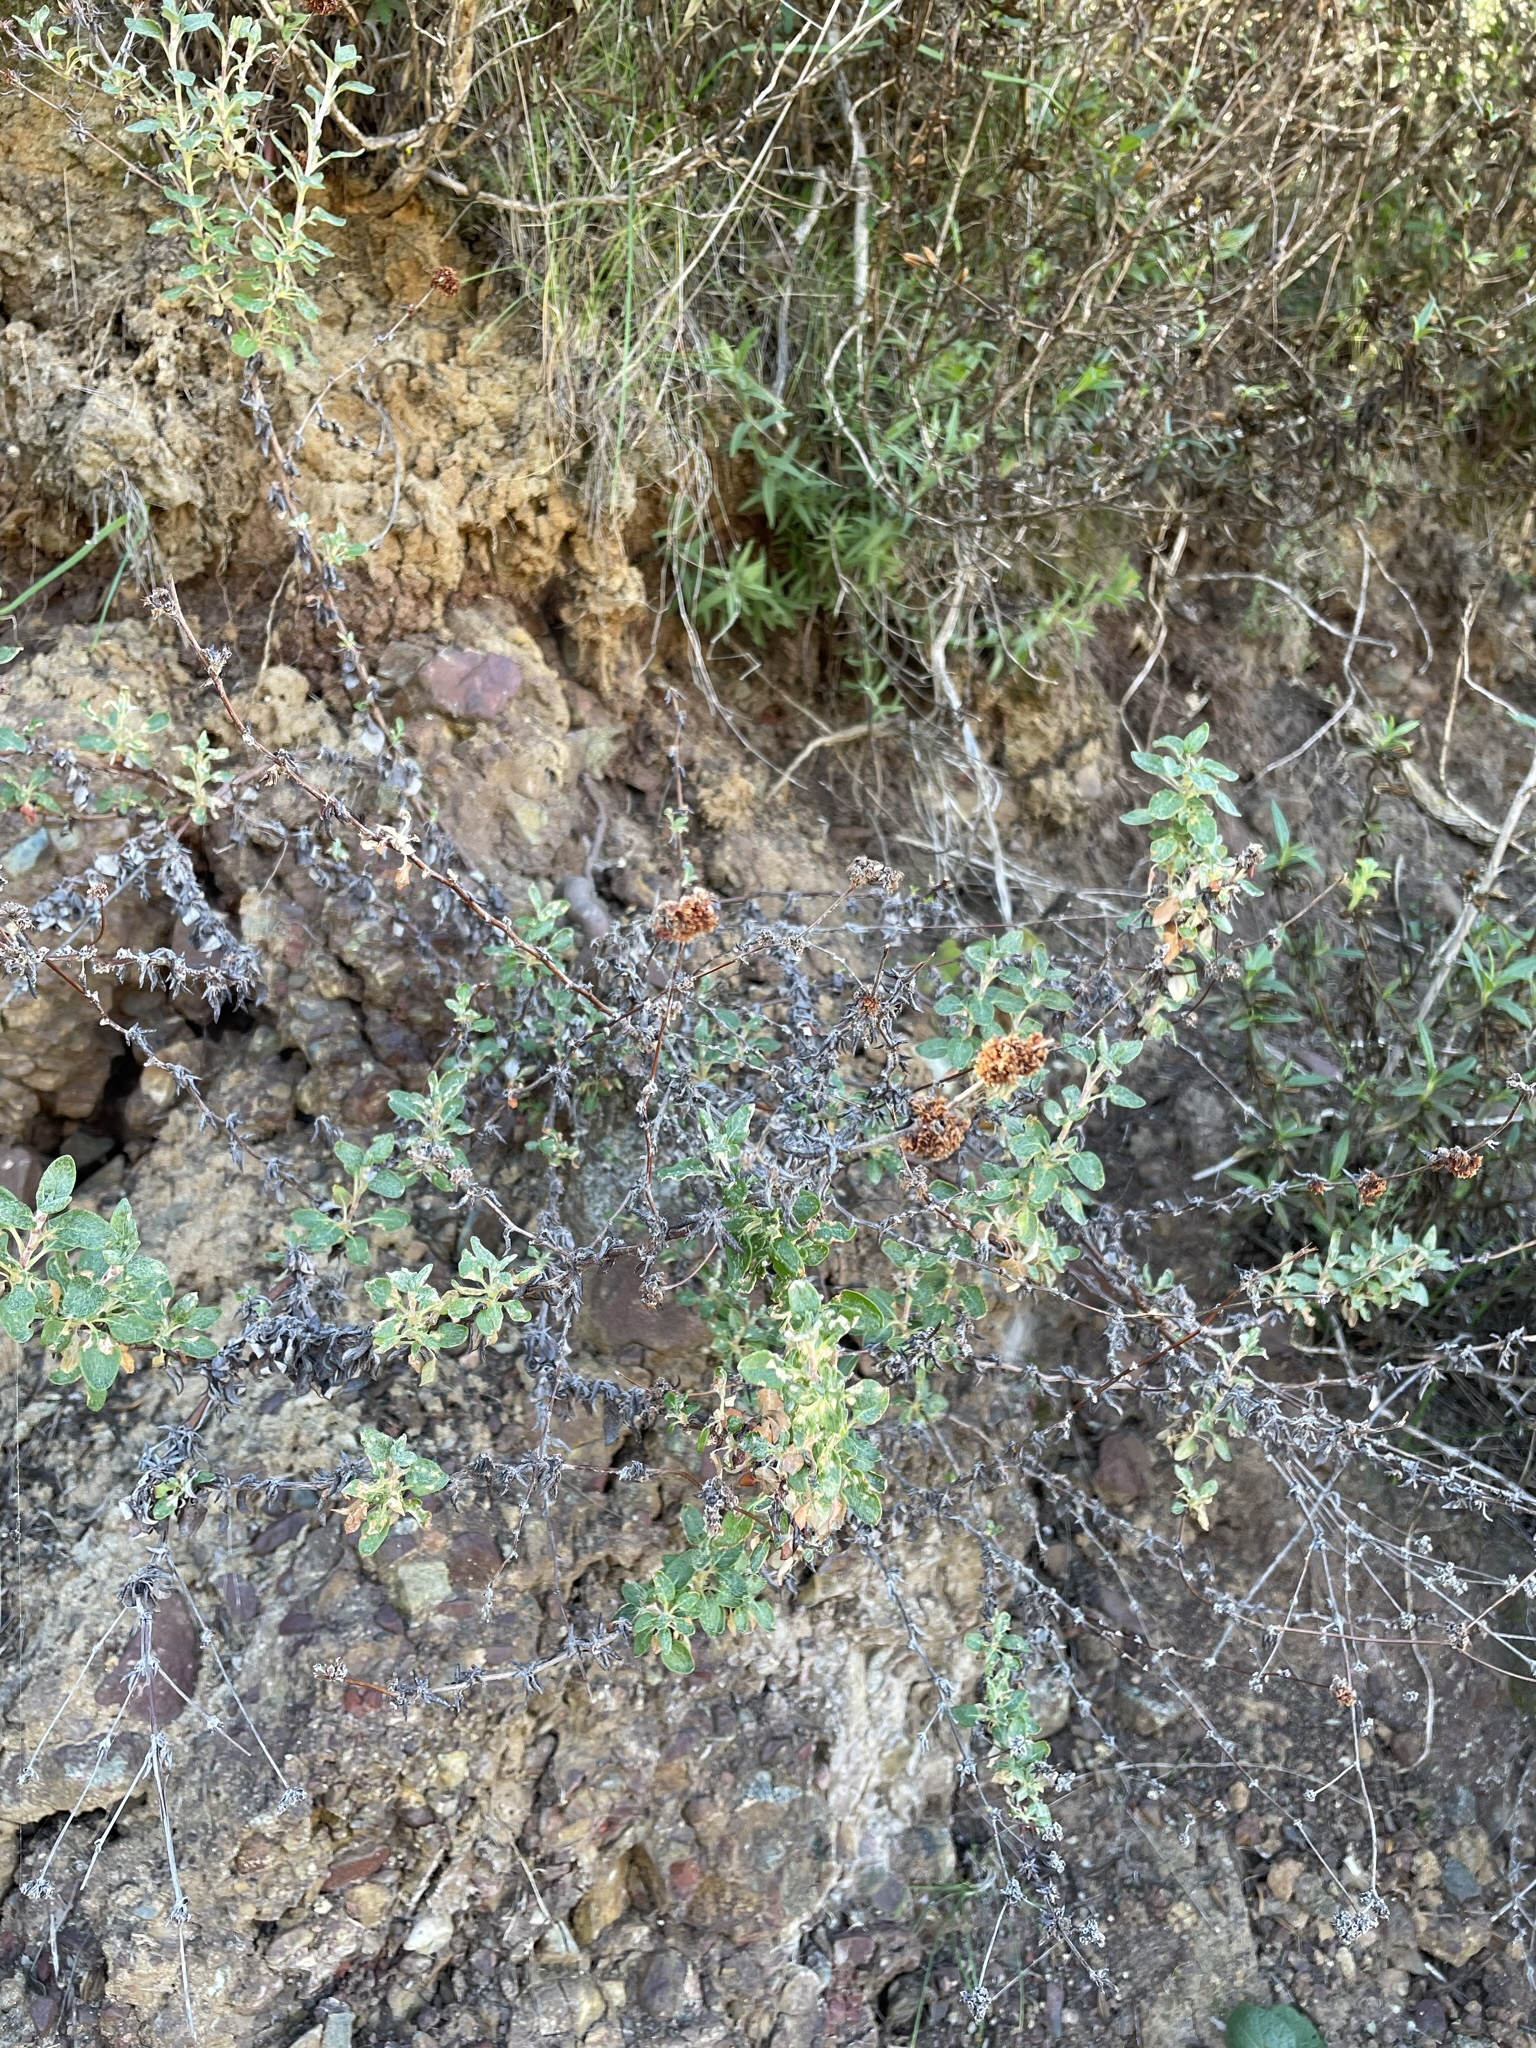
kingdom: Plantae
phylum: Tracheophyta
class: Magnoliopsida
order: Caryophyllales
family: Polygonaceae
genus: Eriogonum
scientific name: Eriogonum parvifolium
